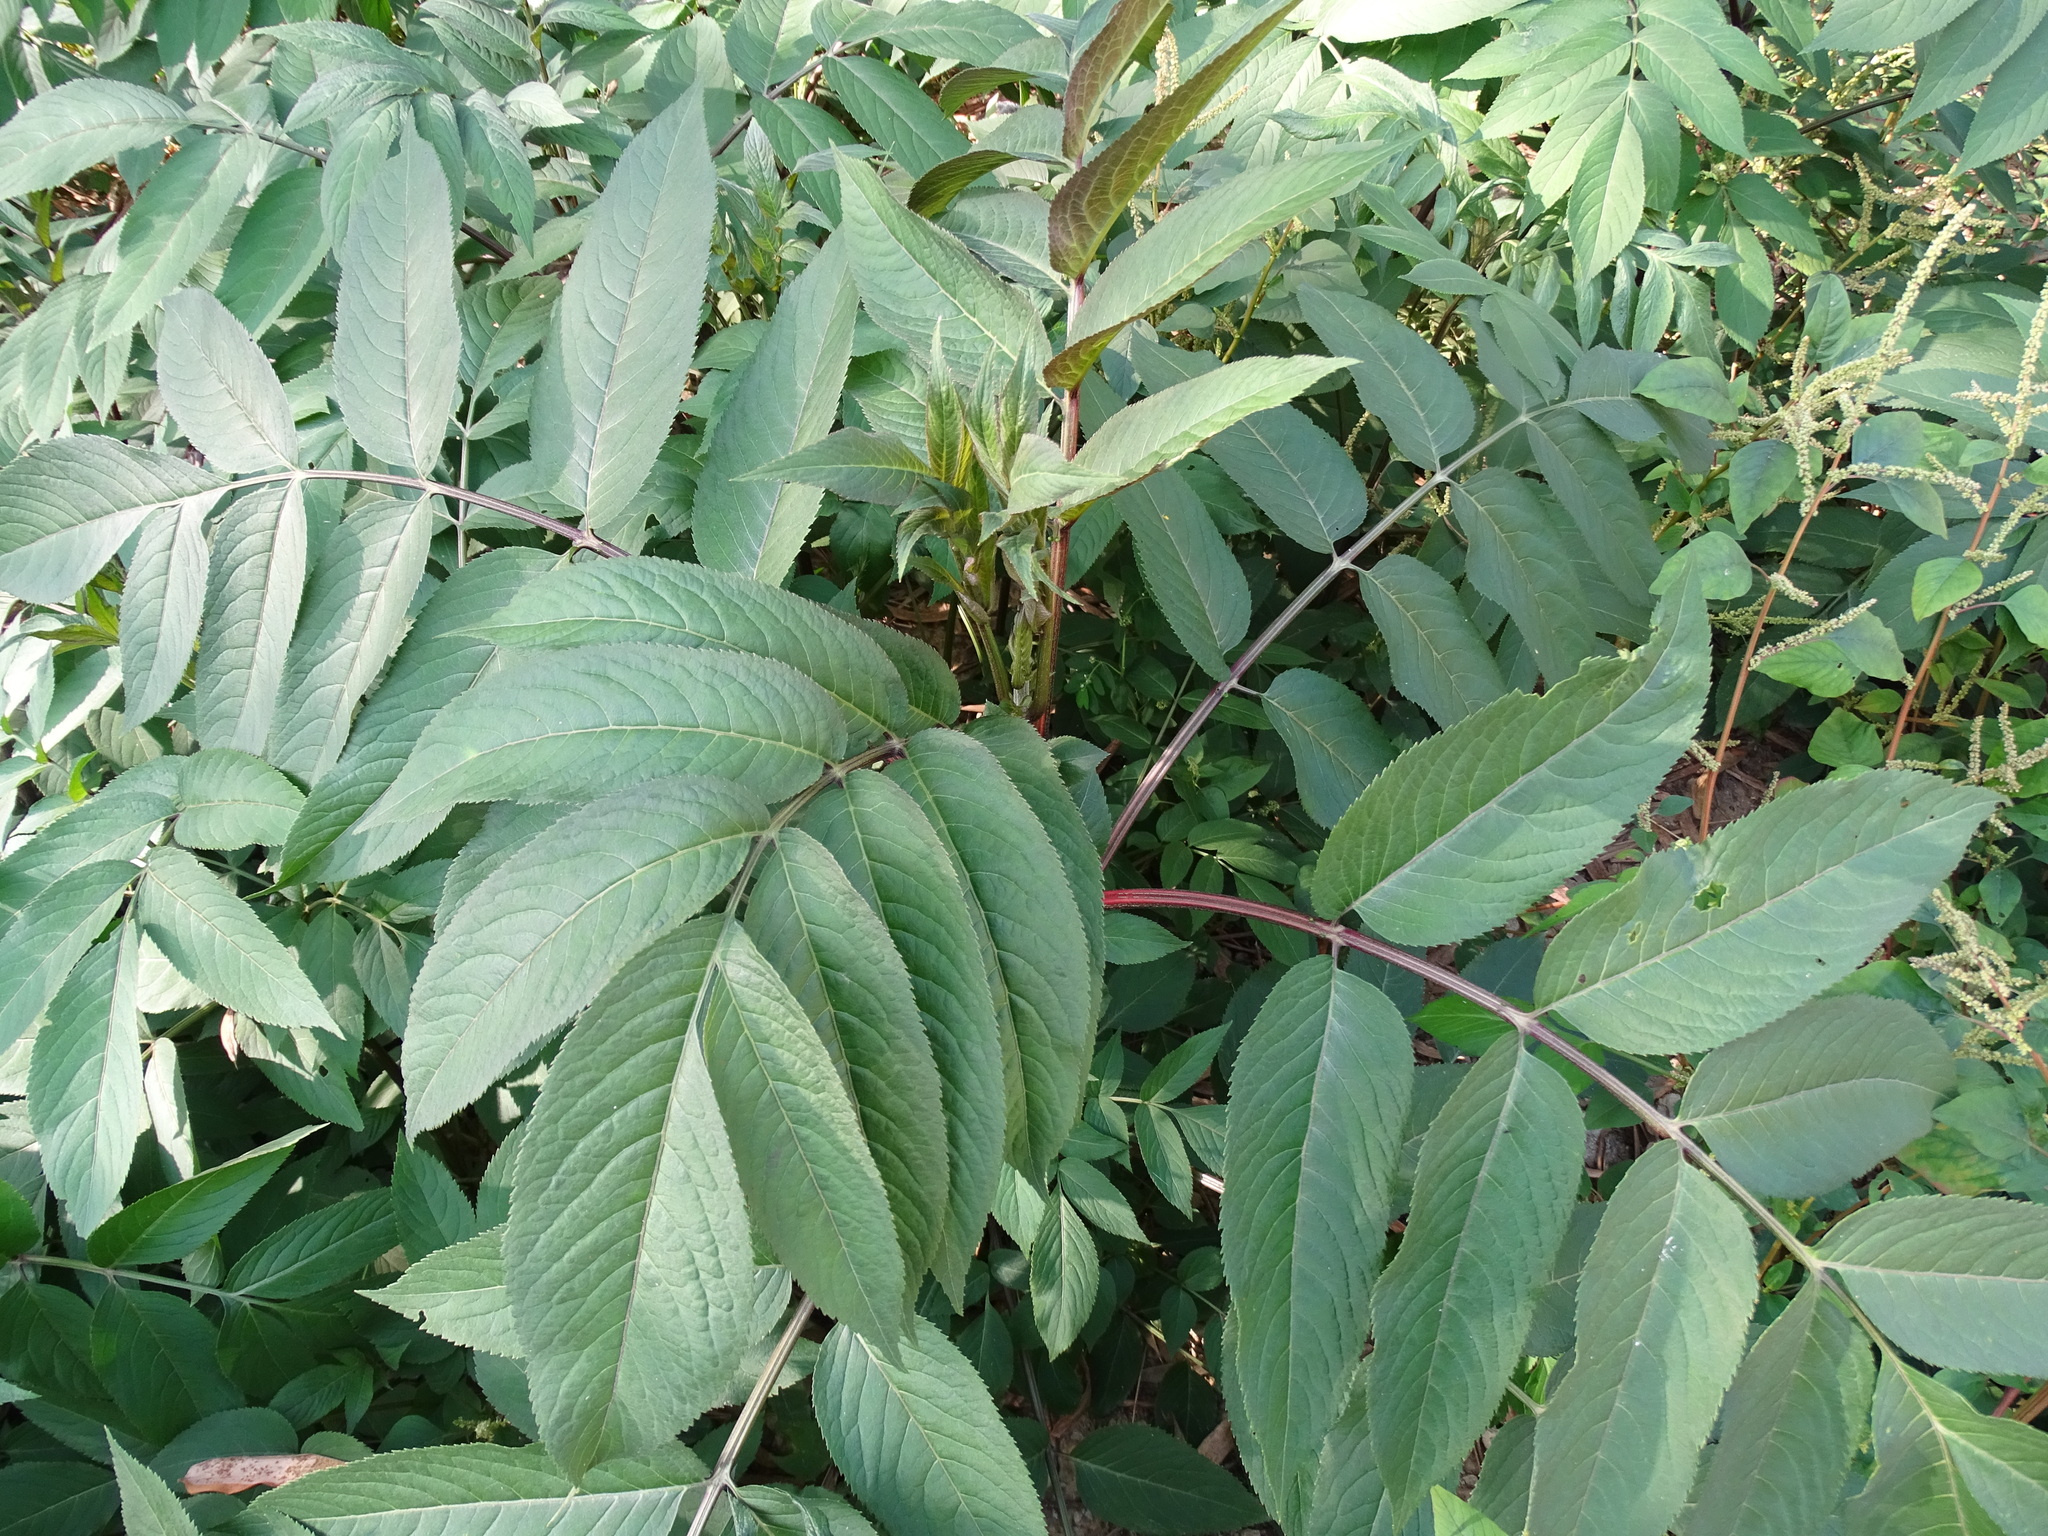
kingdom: Plantae
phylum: Tracheophyta
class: Magnoliopsida
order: Dipsacales
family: Viburnaceae
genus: Sambucus
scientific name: Sambucus javanica
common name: Chinese elder
